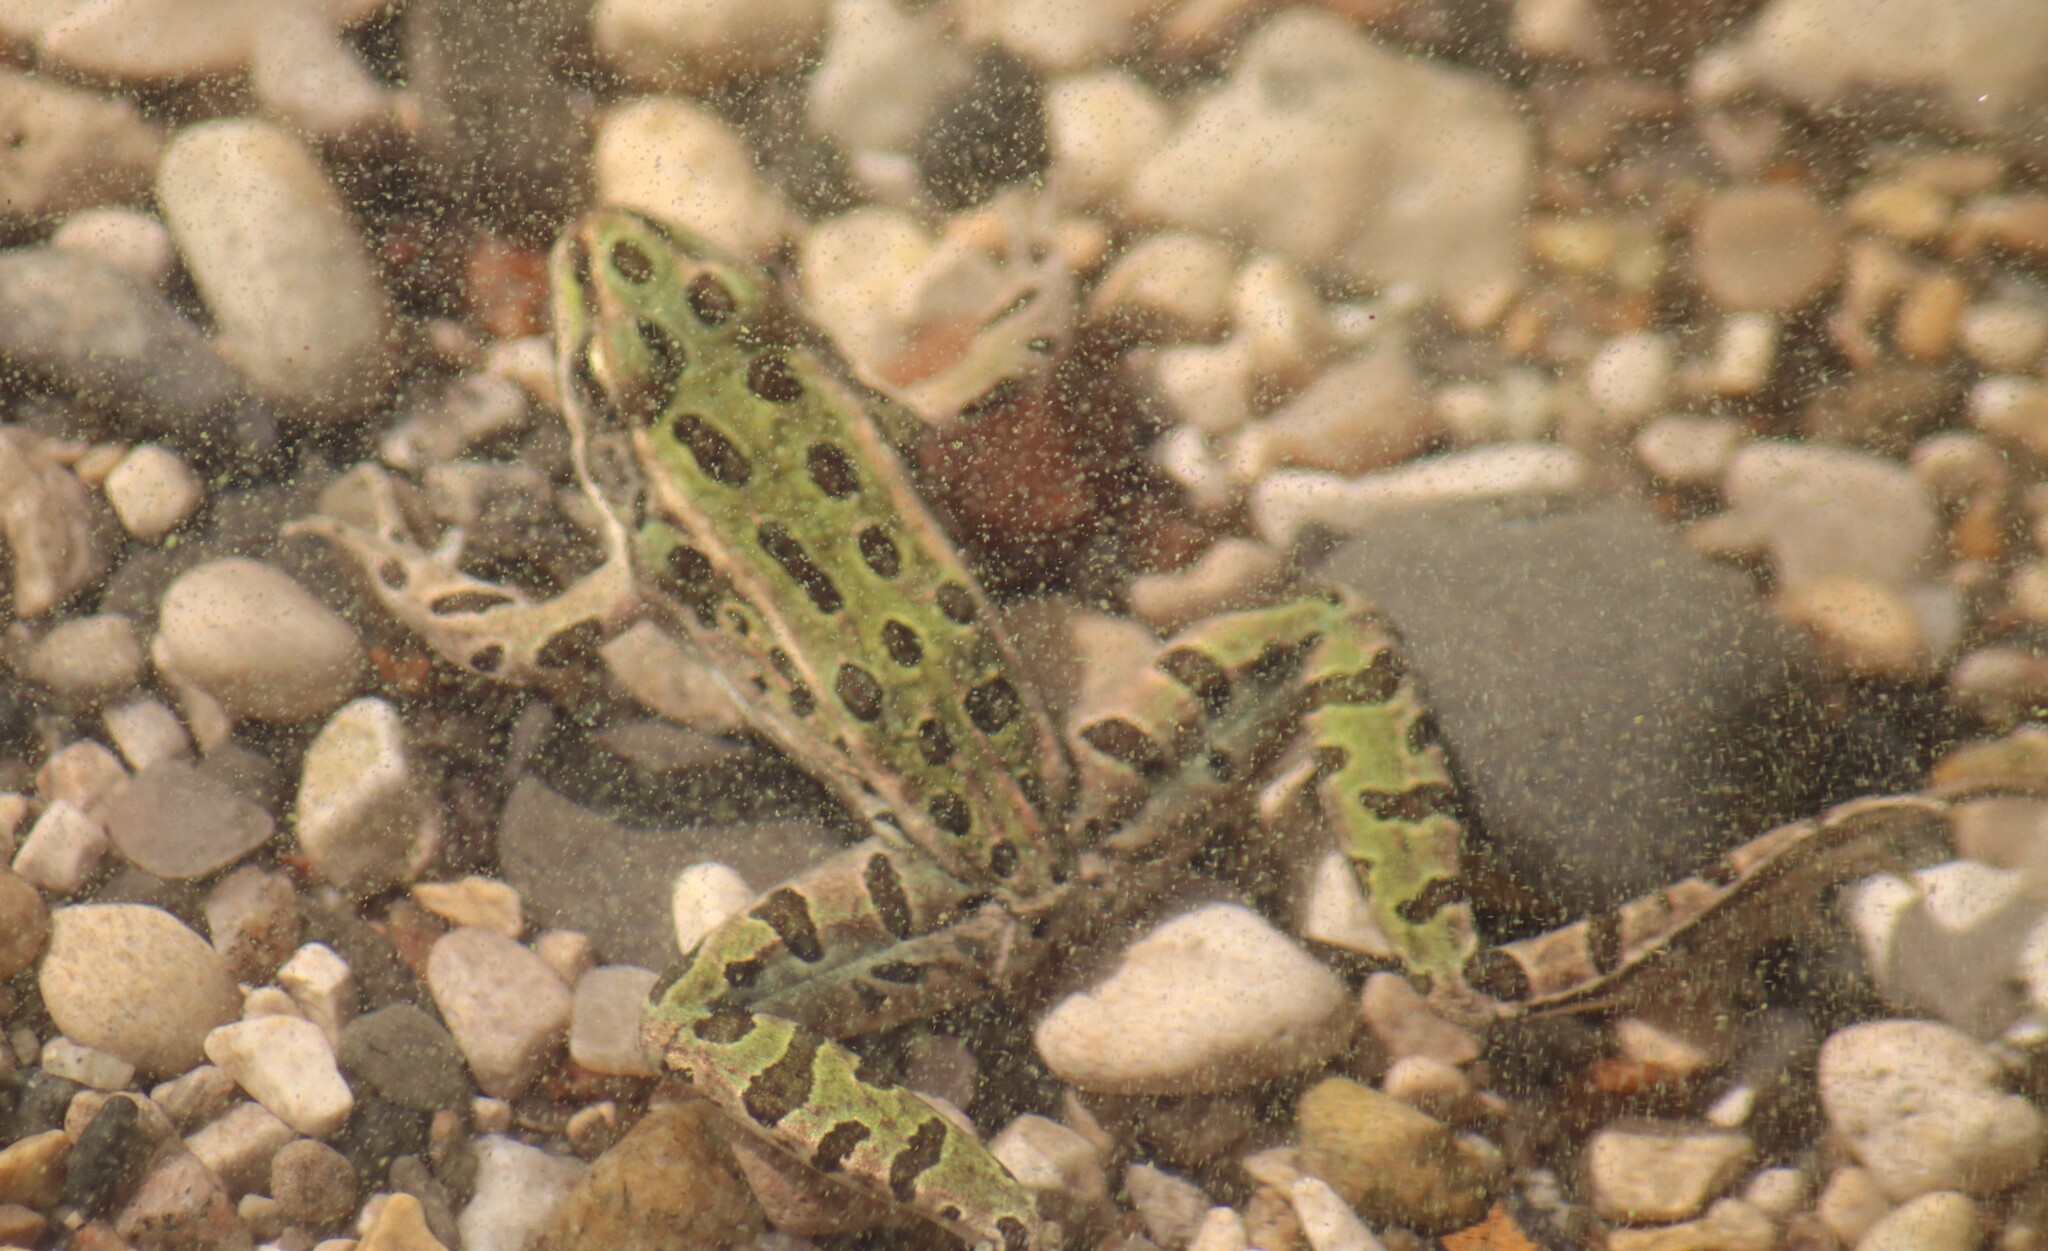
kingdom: Animalia
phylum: Chordata
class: Amphibia
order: Anura
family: Ranidae
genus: Lithobates
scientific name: Lithobates pipiens
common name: Northern leopard frog
